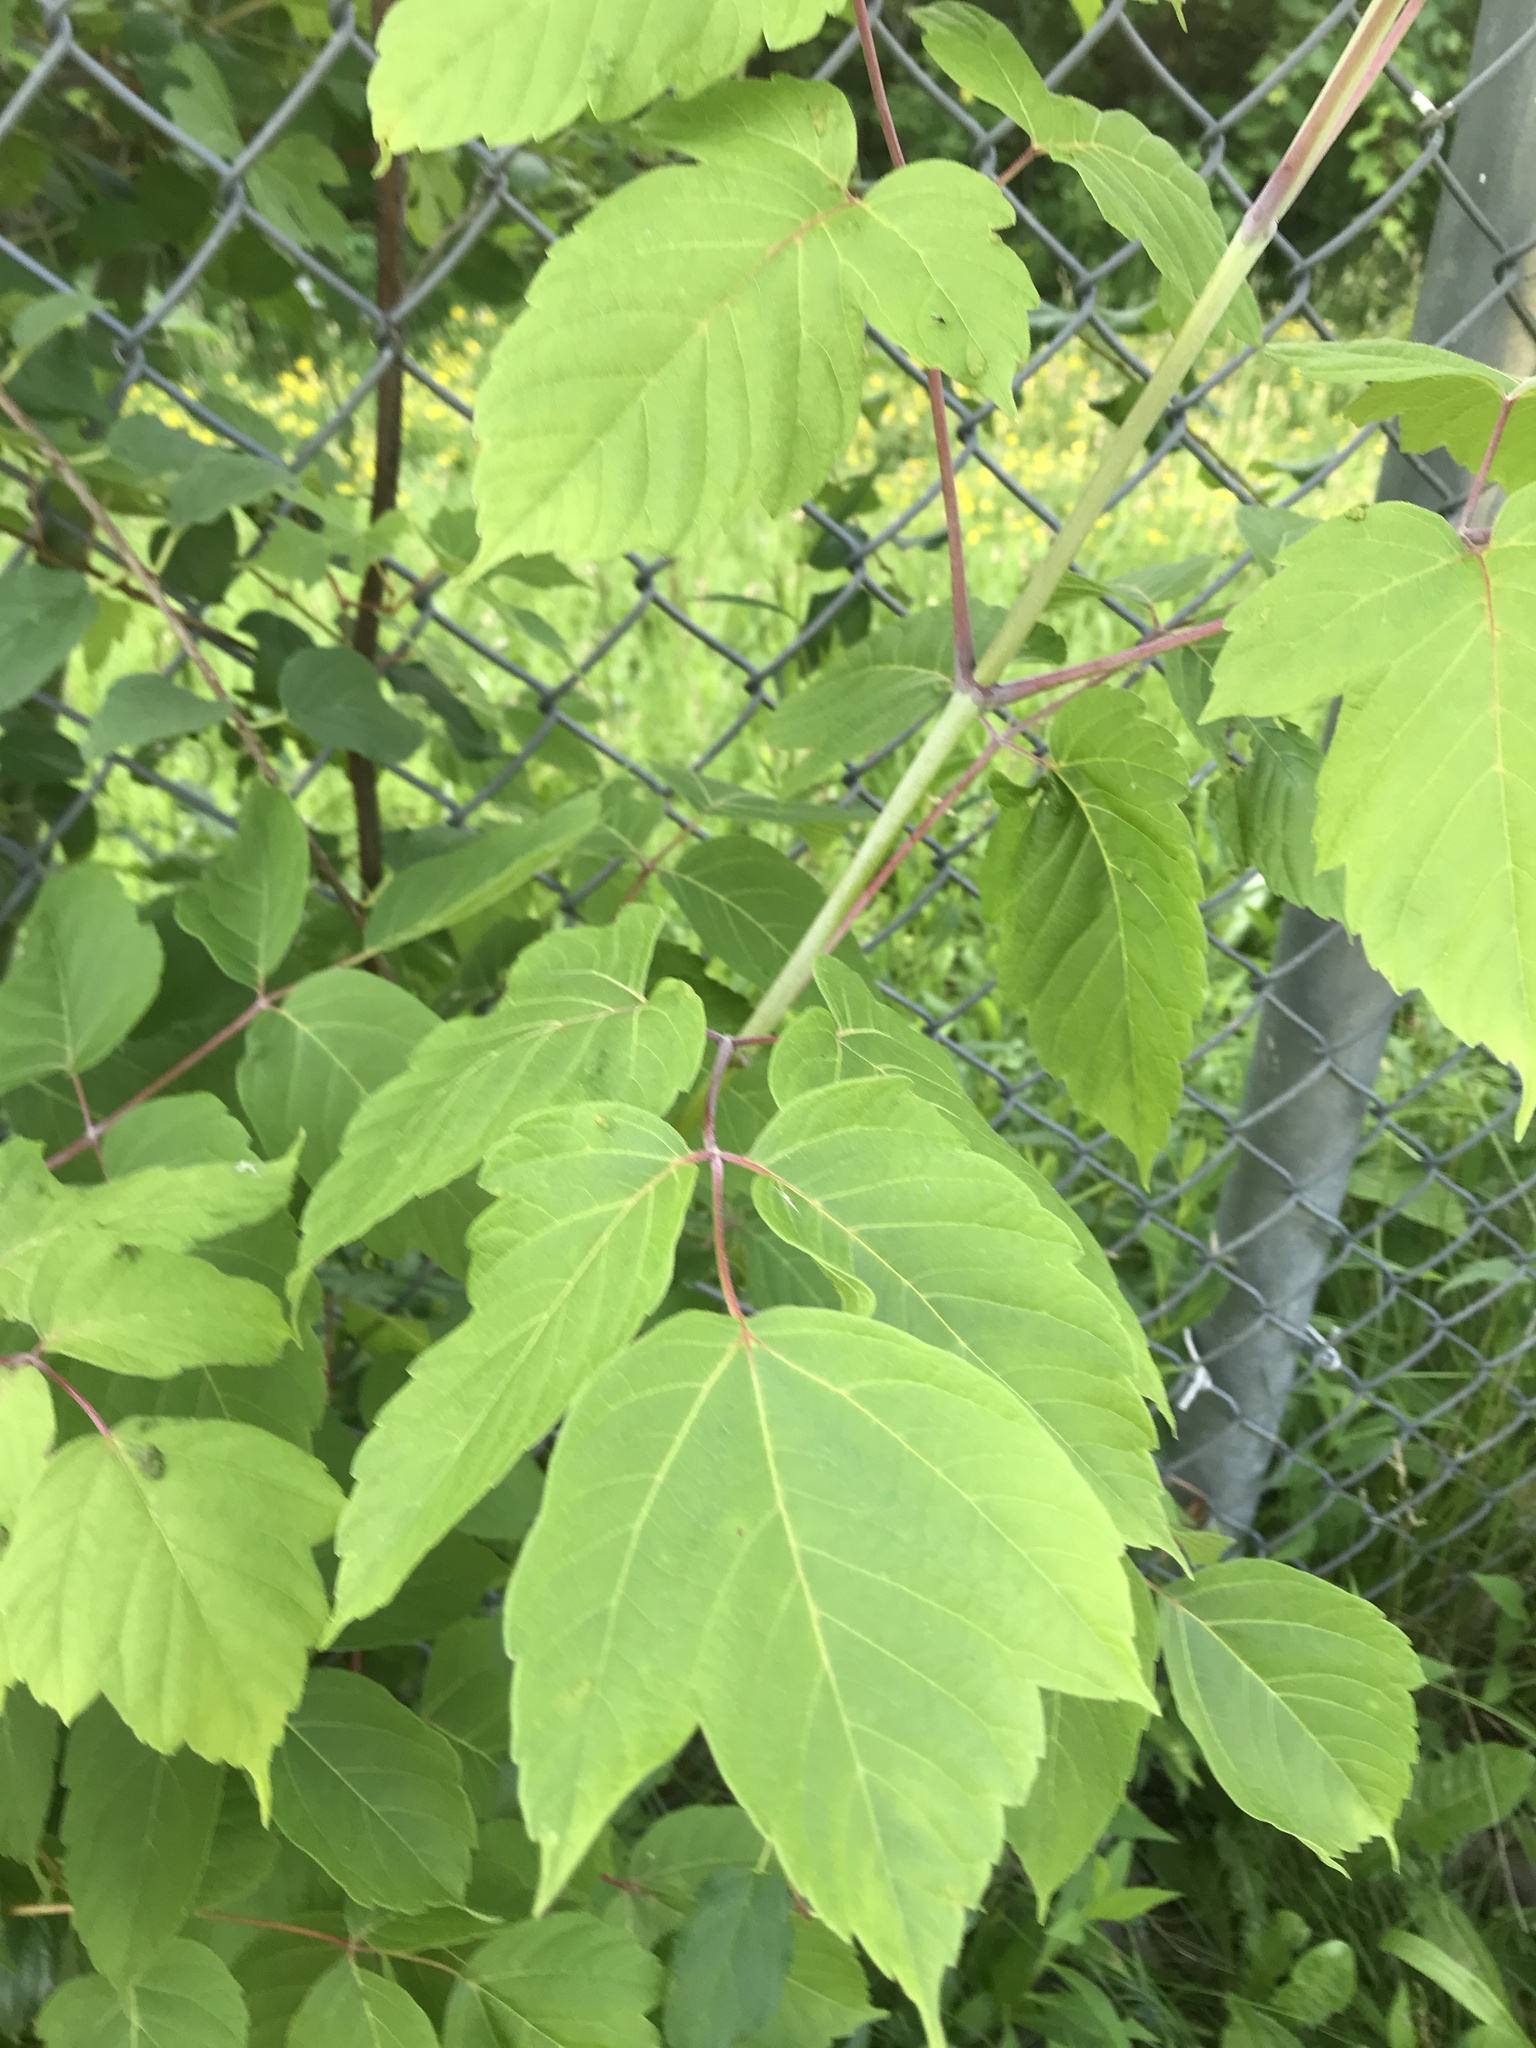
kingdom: Plantae
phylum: Tracheophyta
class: Magnoliopsida
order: Sapindales
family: Sapindaceae
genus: Acer
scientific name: Acer negundo
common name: Ashleaf maple
